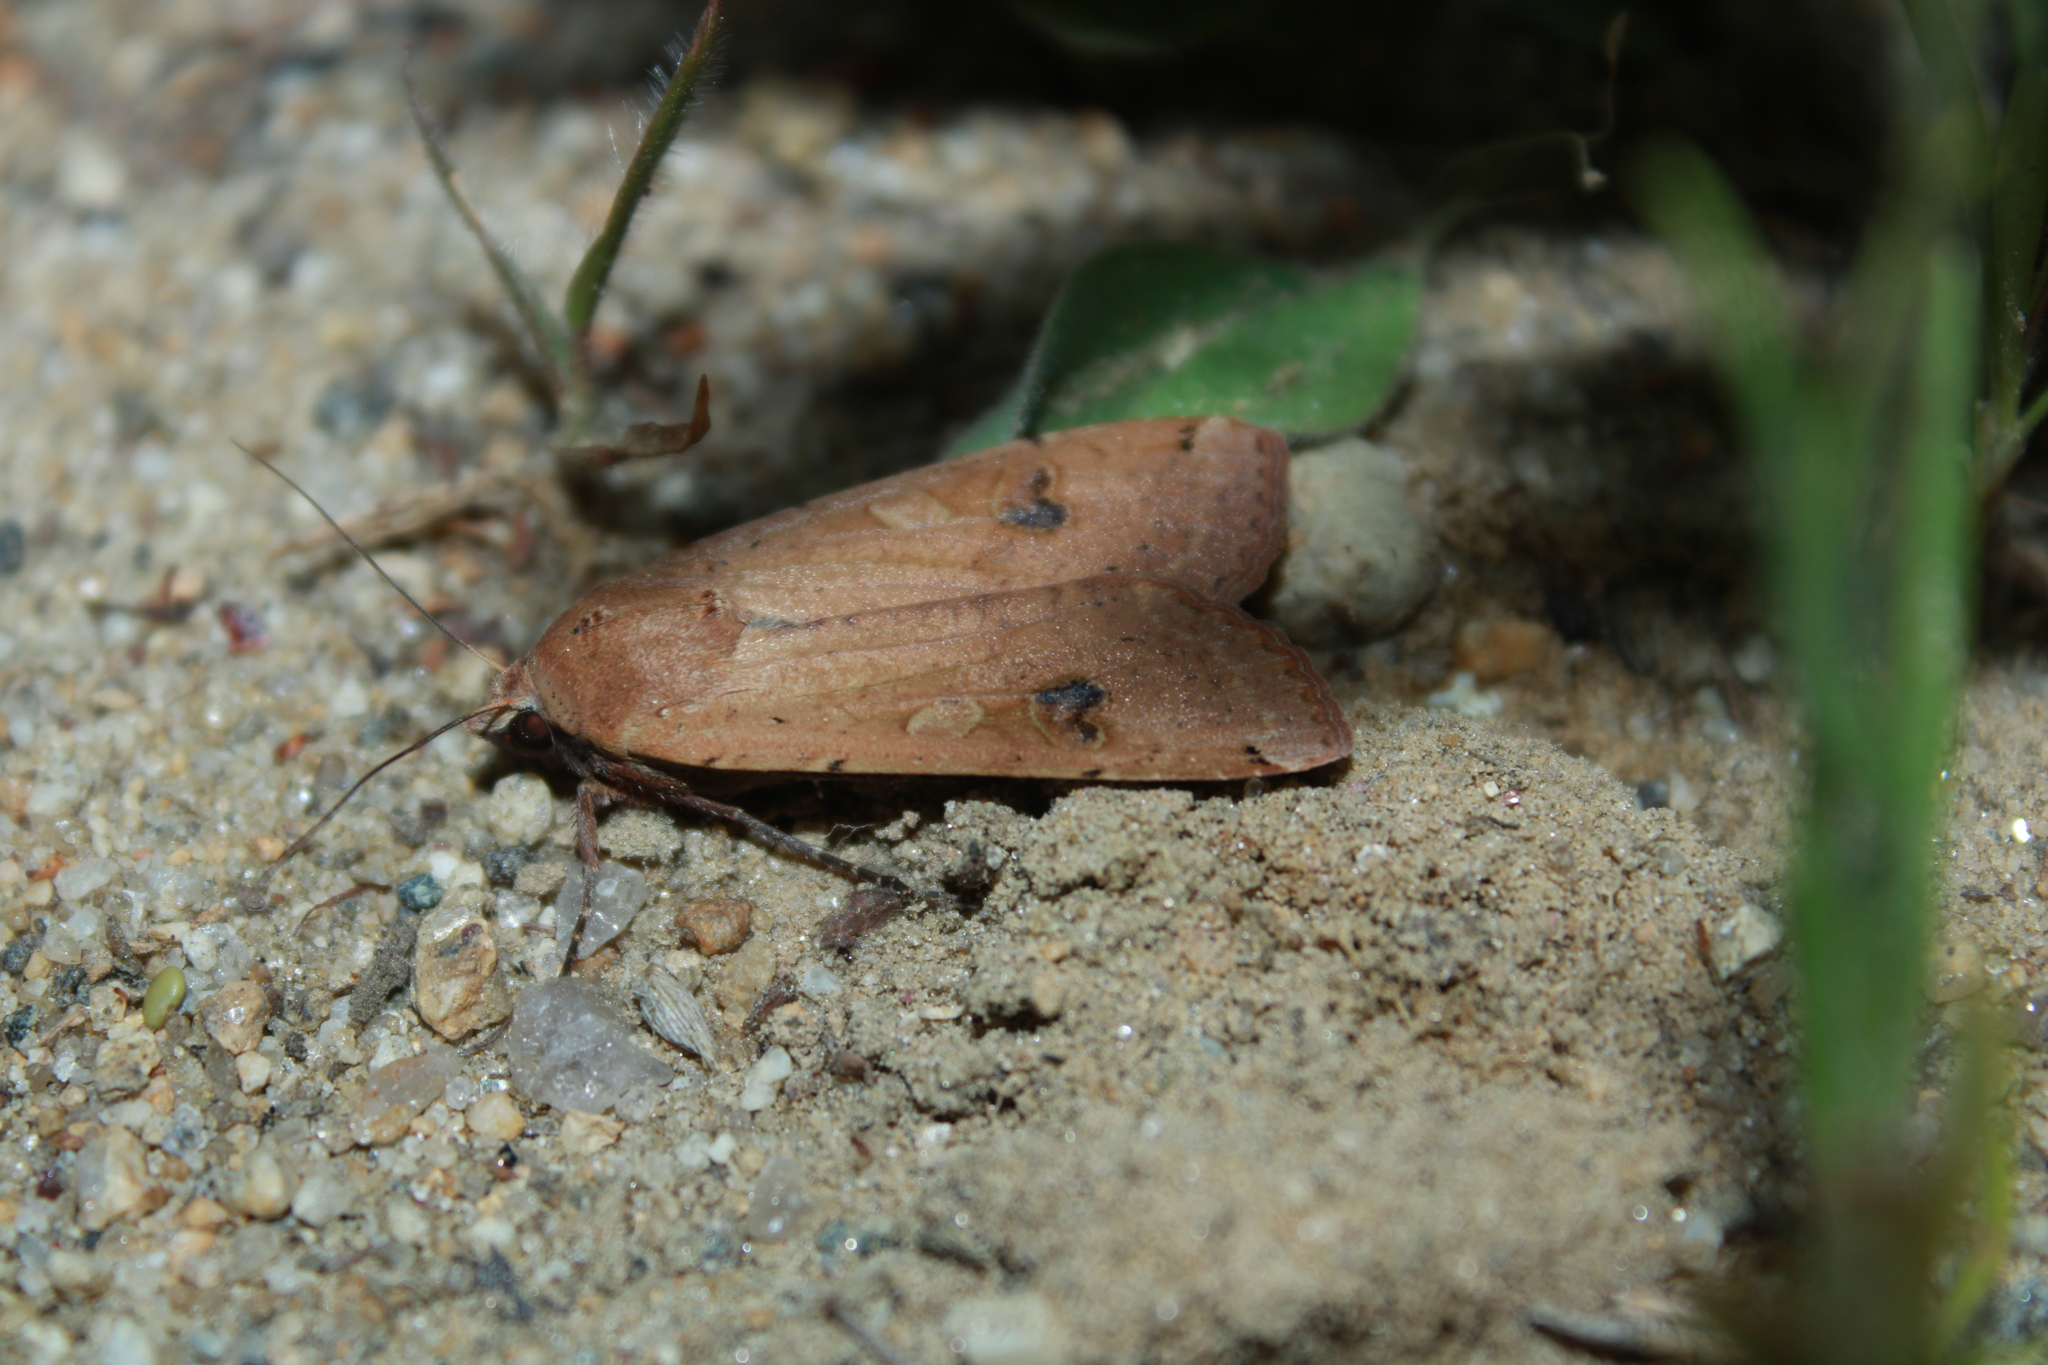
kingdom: Animalia
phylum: Arthropoda
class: Insecta
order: Lepidoptera
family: Noctuidae
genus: Noctua
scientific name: Noctua pronuba
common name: Large yellow underwing
